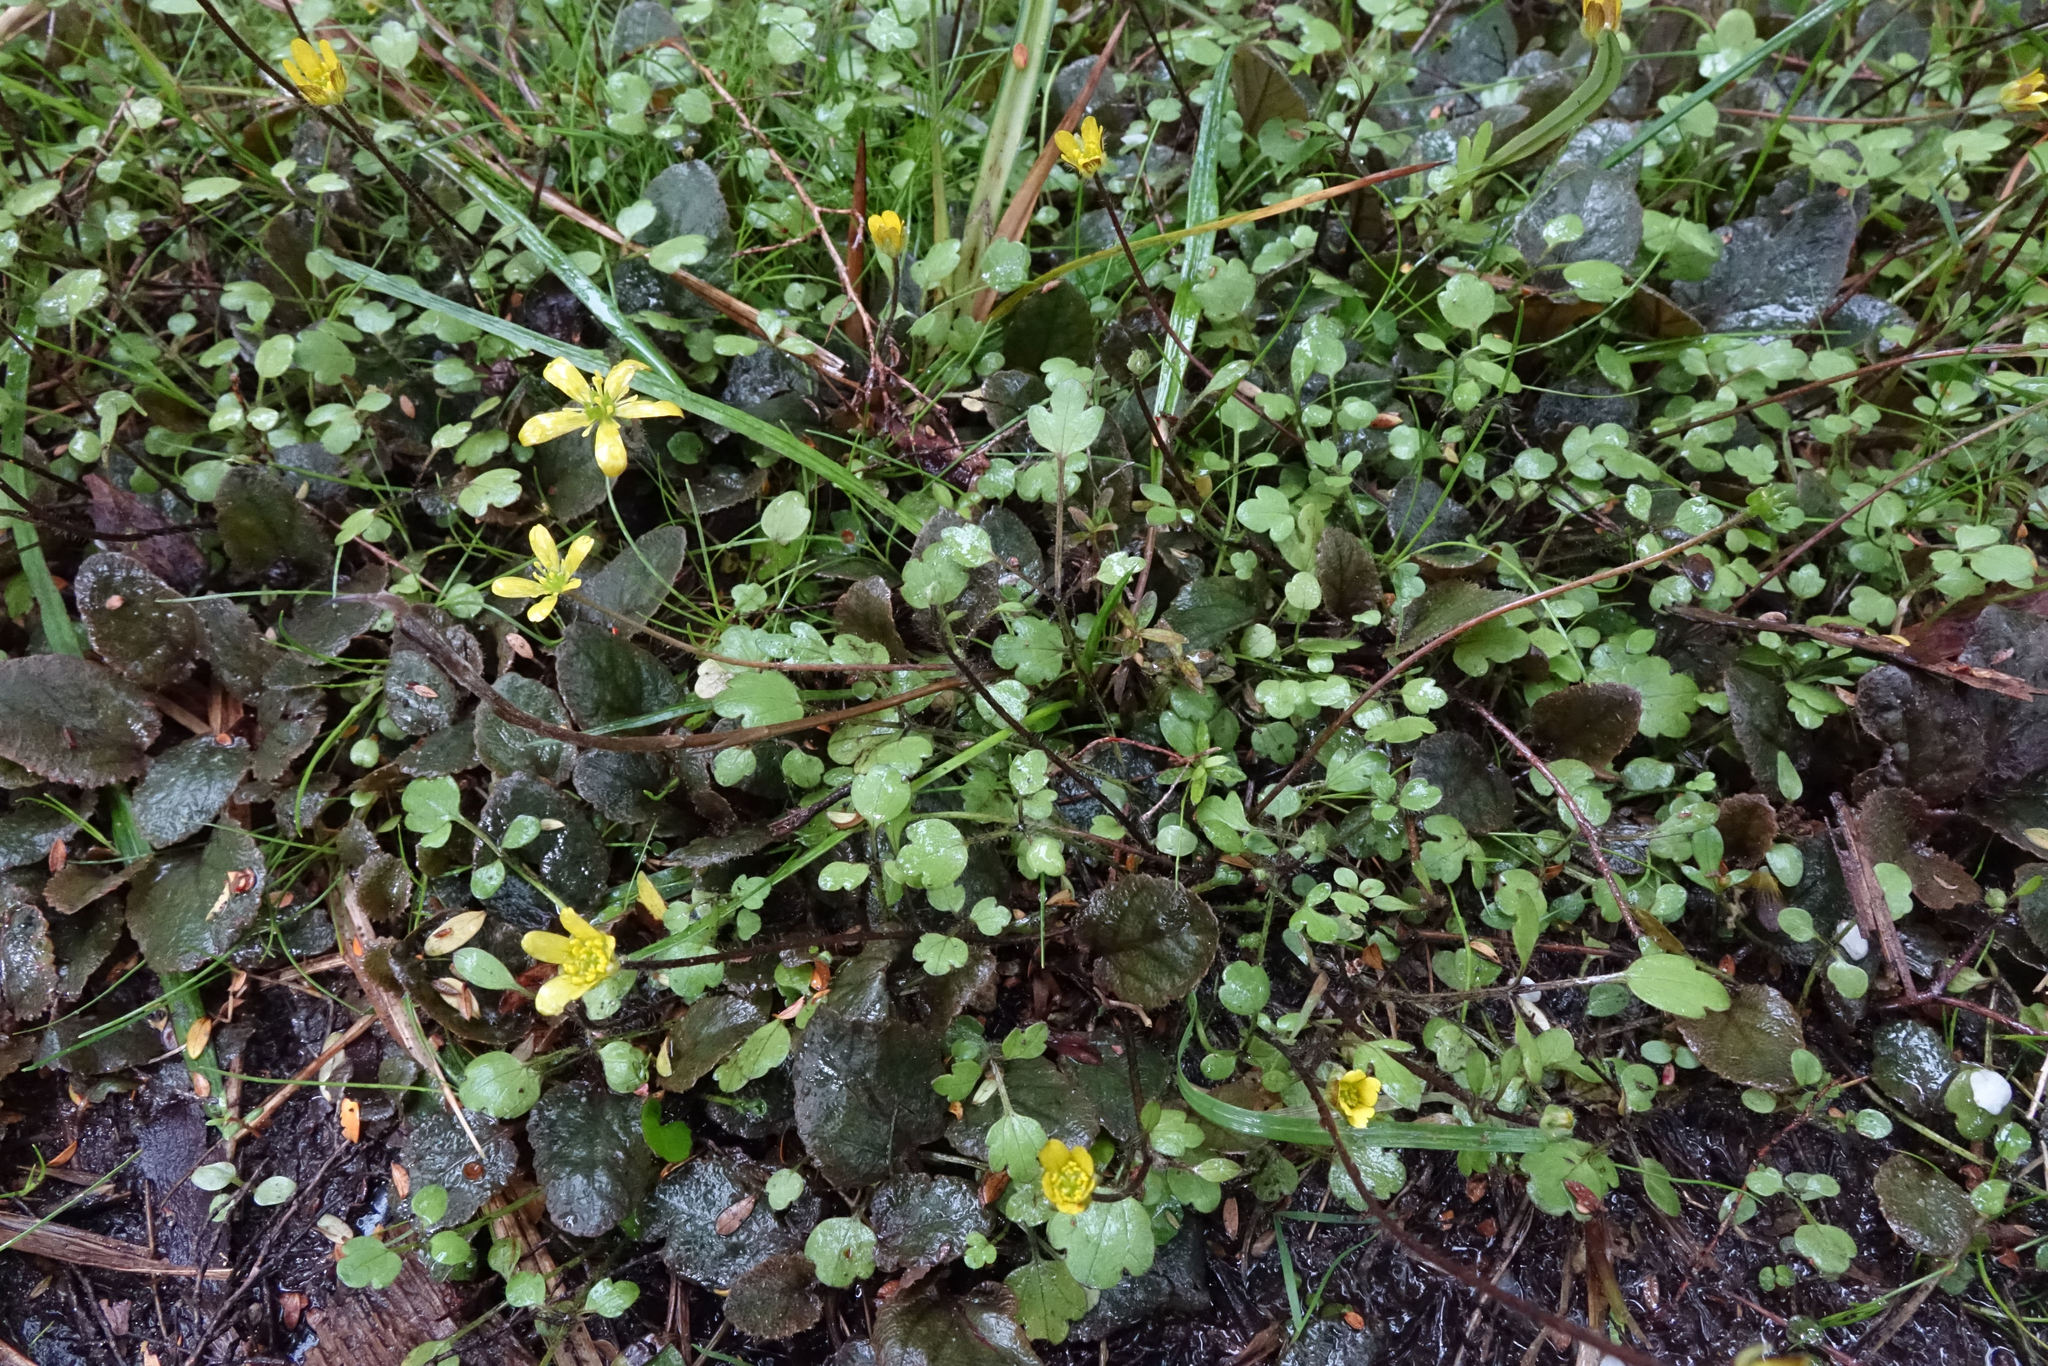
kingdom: Plantae
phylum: Tracheophyta
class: Magnoliopsida
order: Ranunculales
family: Ranunculaceae
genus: Ranunculus
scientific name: Ranunculus kirkii
